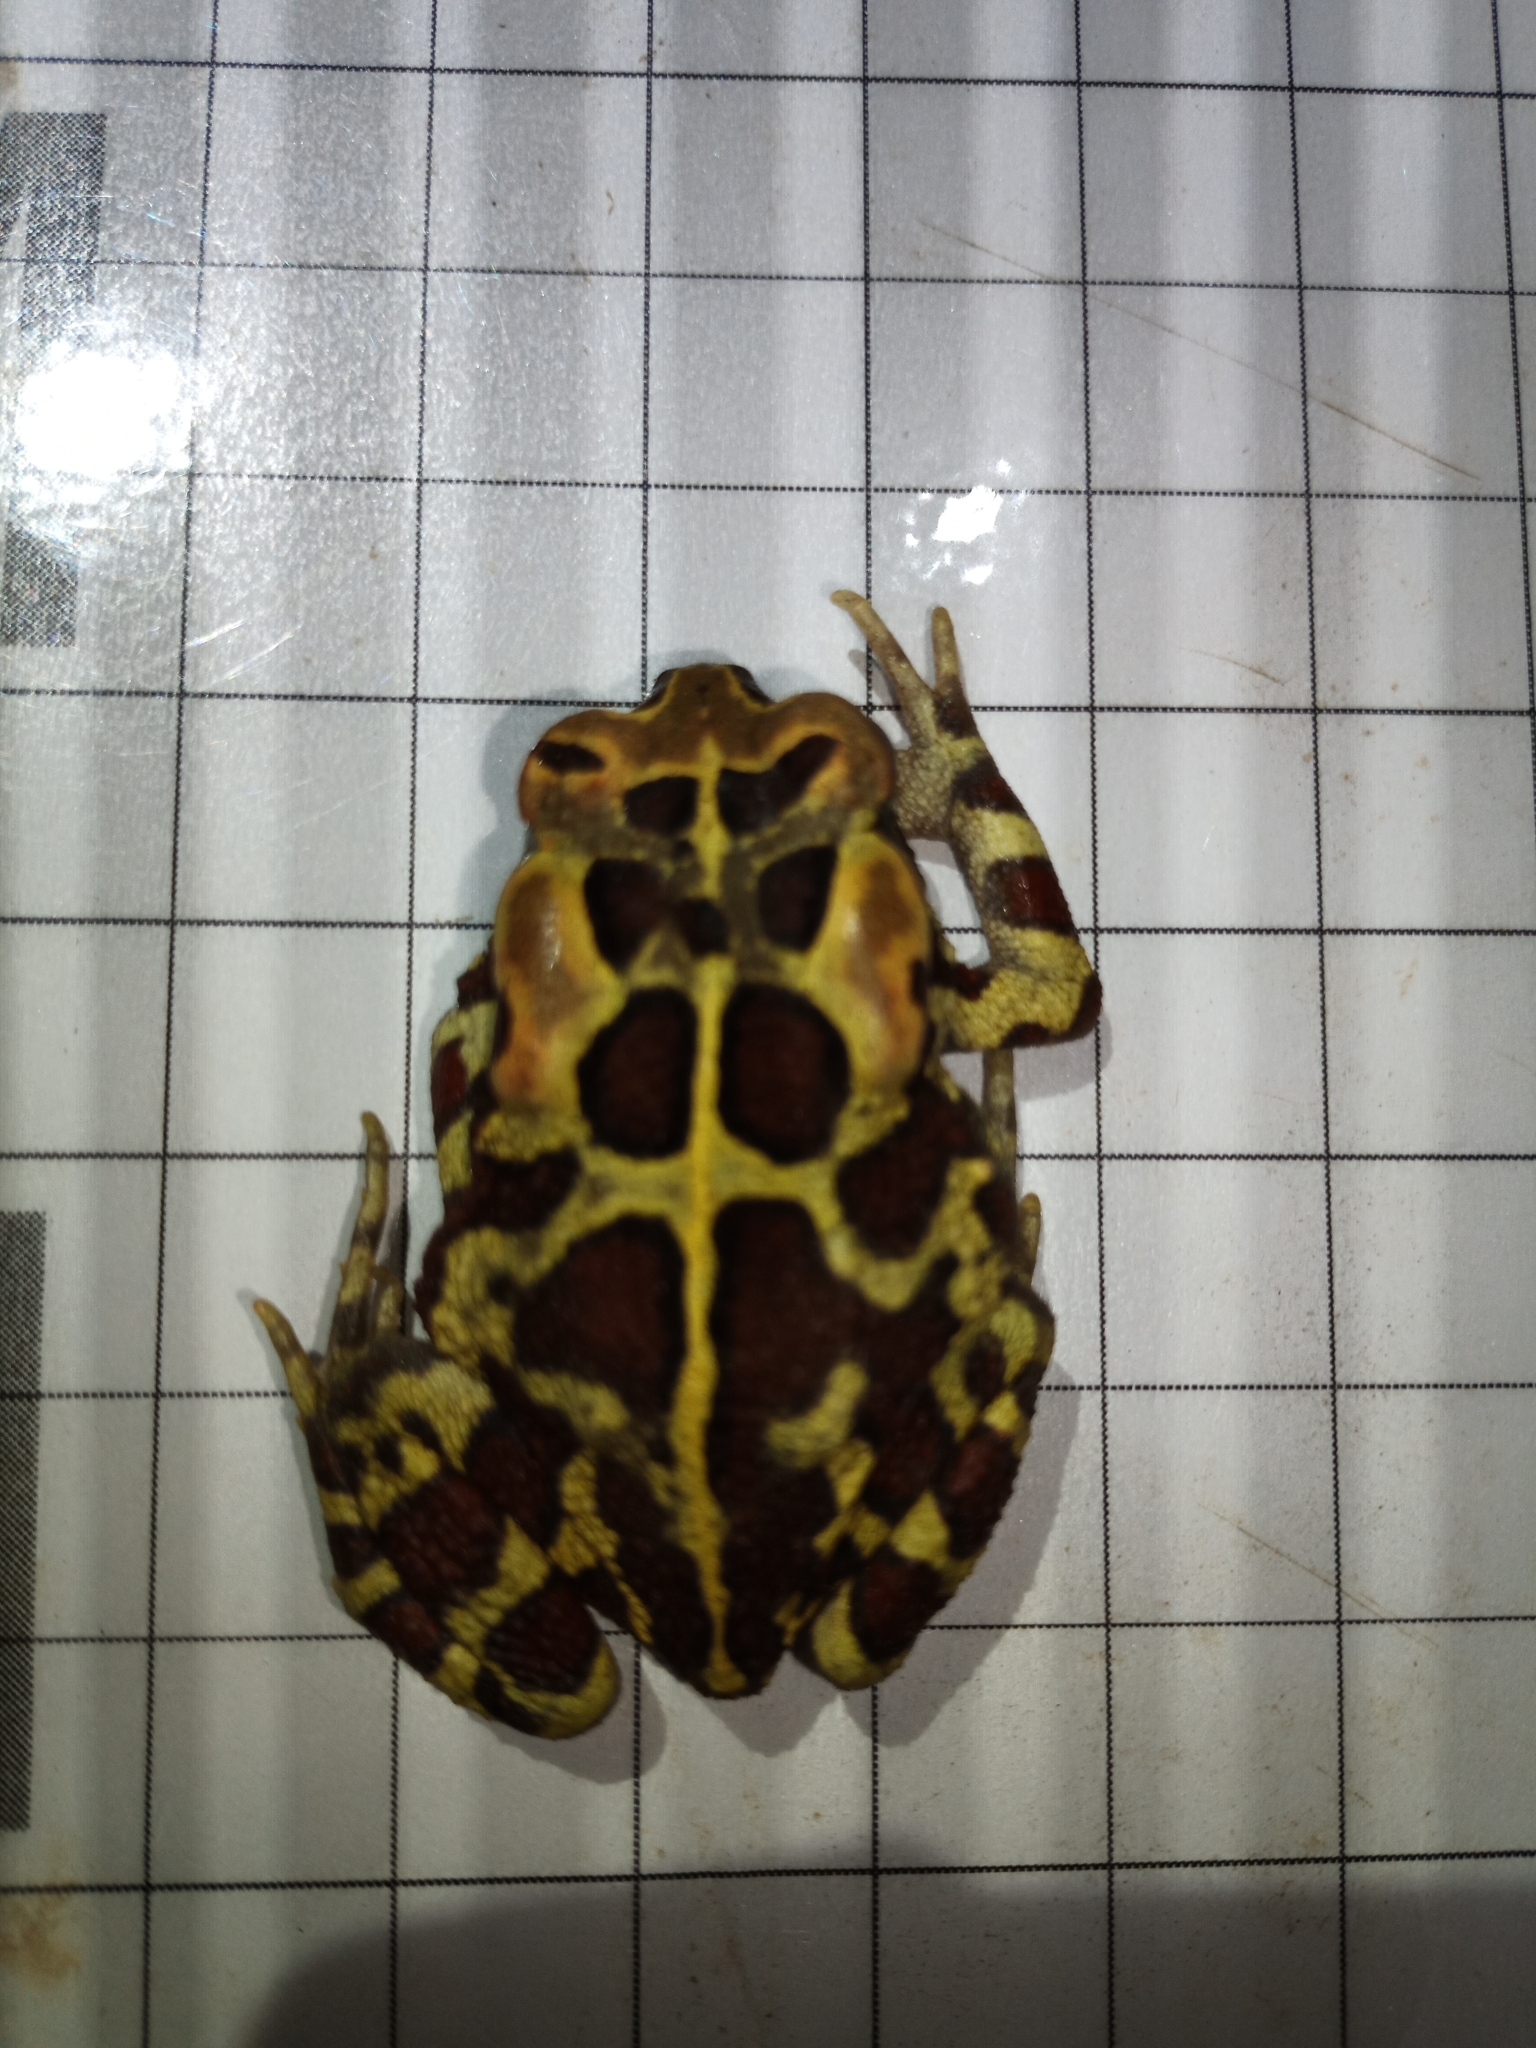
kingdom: Animalia
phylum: Chordata
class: Amphibia
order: Anura
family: Bufonidae
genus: Sclerophrys
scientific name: Sclerophrys pantherina
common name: Panther toad
